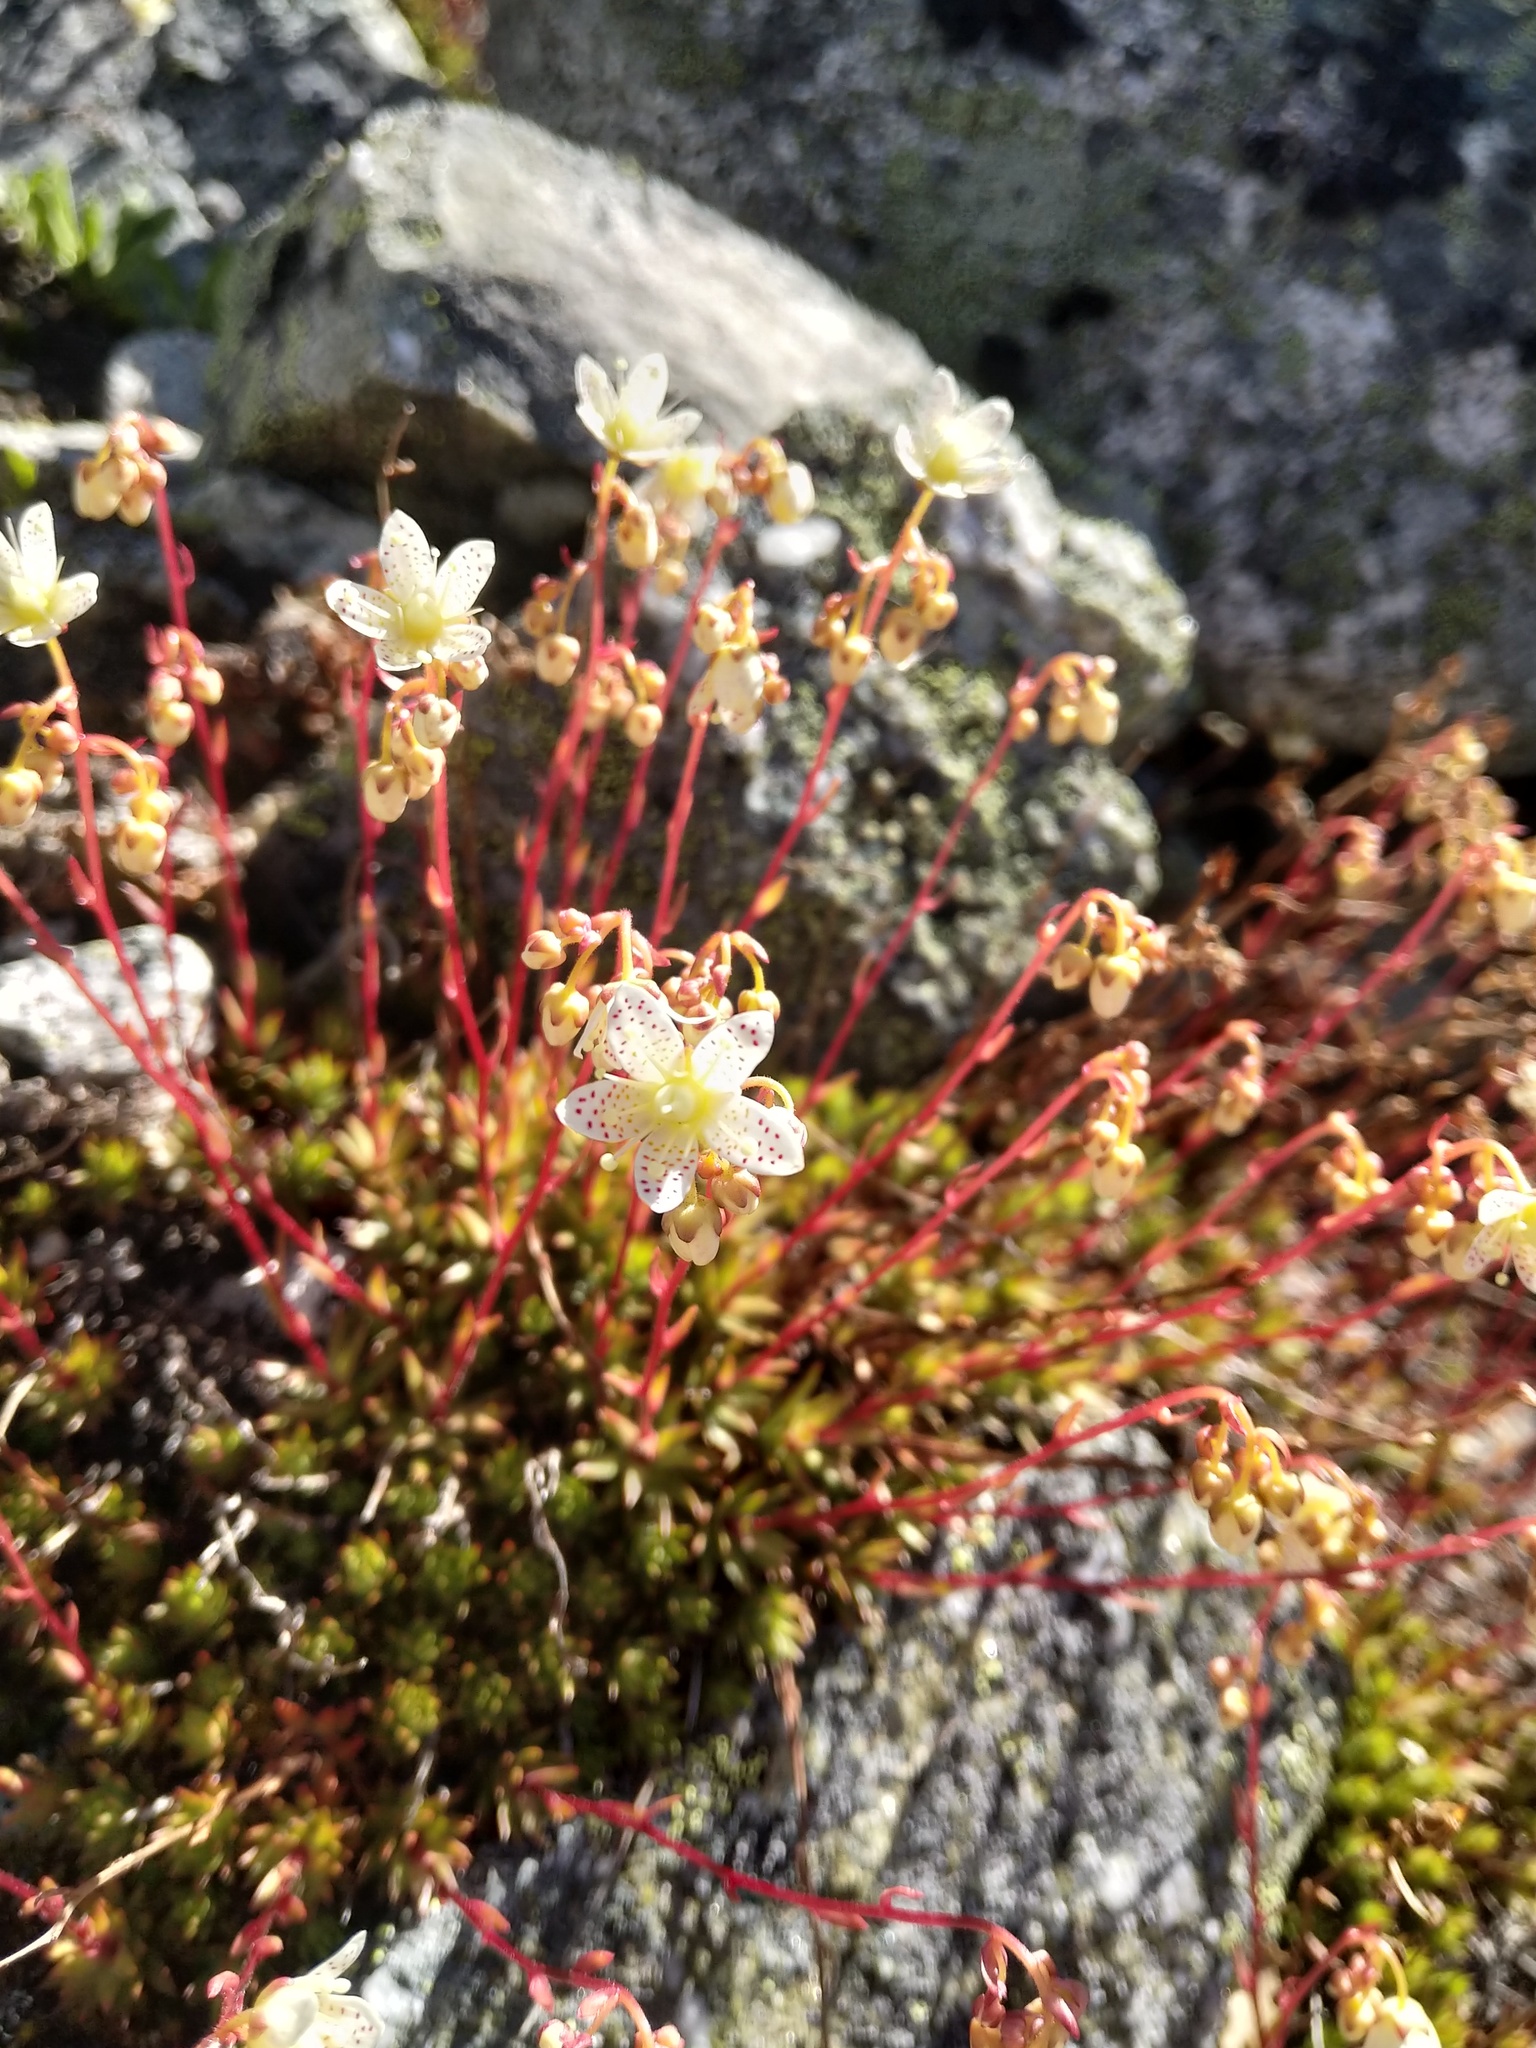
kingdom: Plantae
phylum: Tracheophyta
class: Magnoliopsida
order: Saxifragales
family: Saxifragaceae
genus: Saxifraga
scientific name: Saxifraga bronchialis
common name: Matted saxifrage
